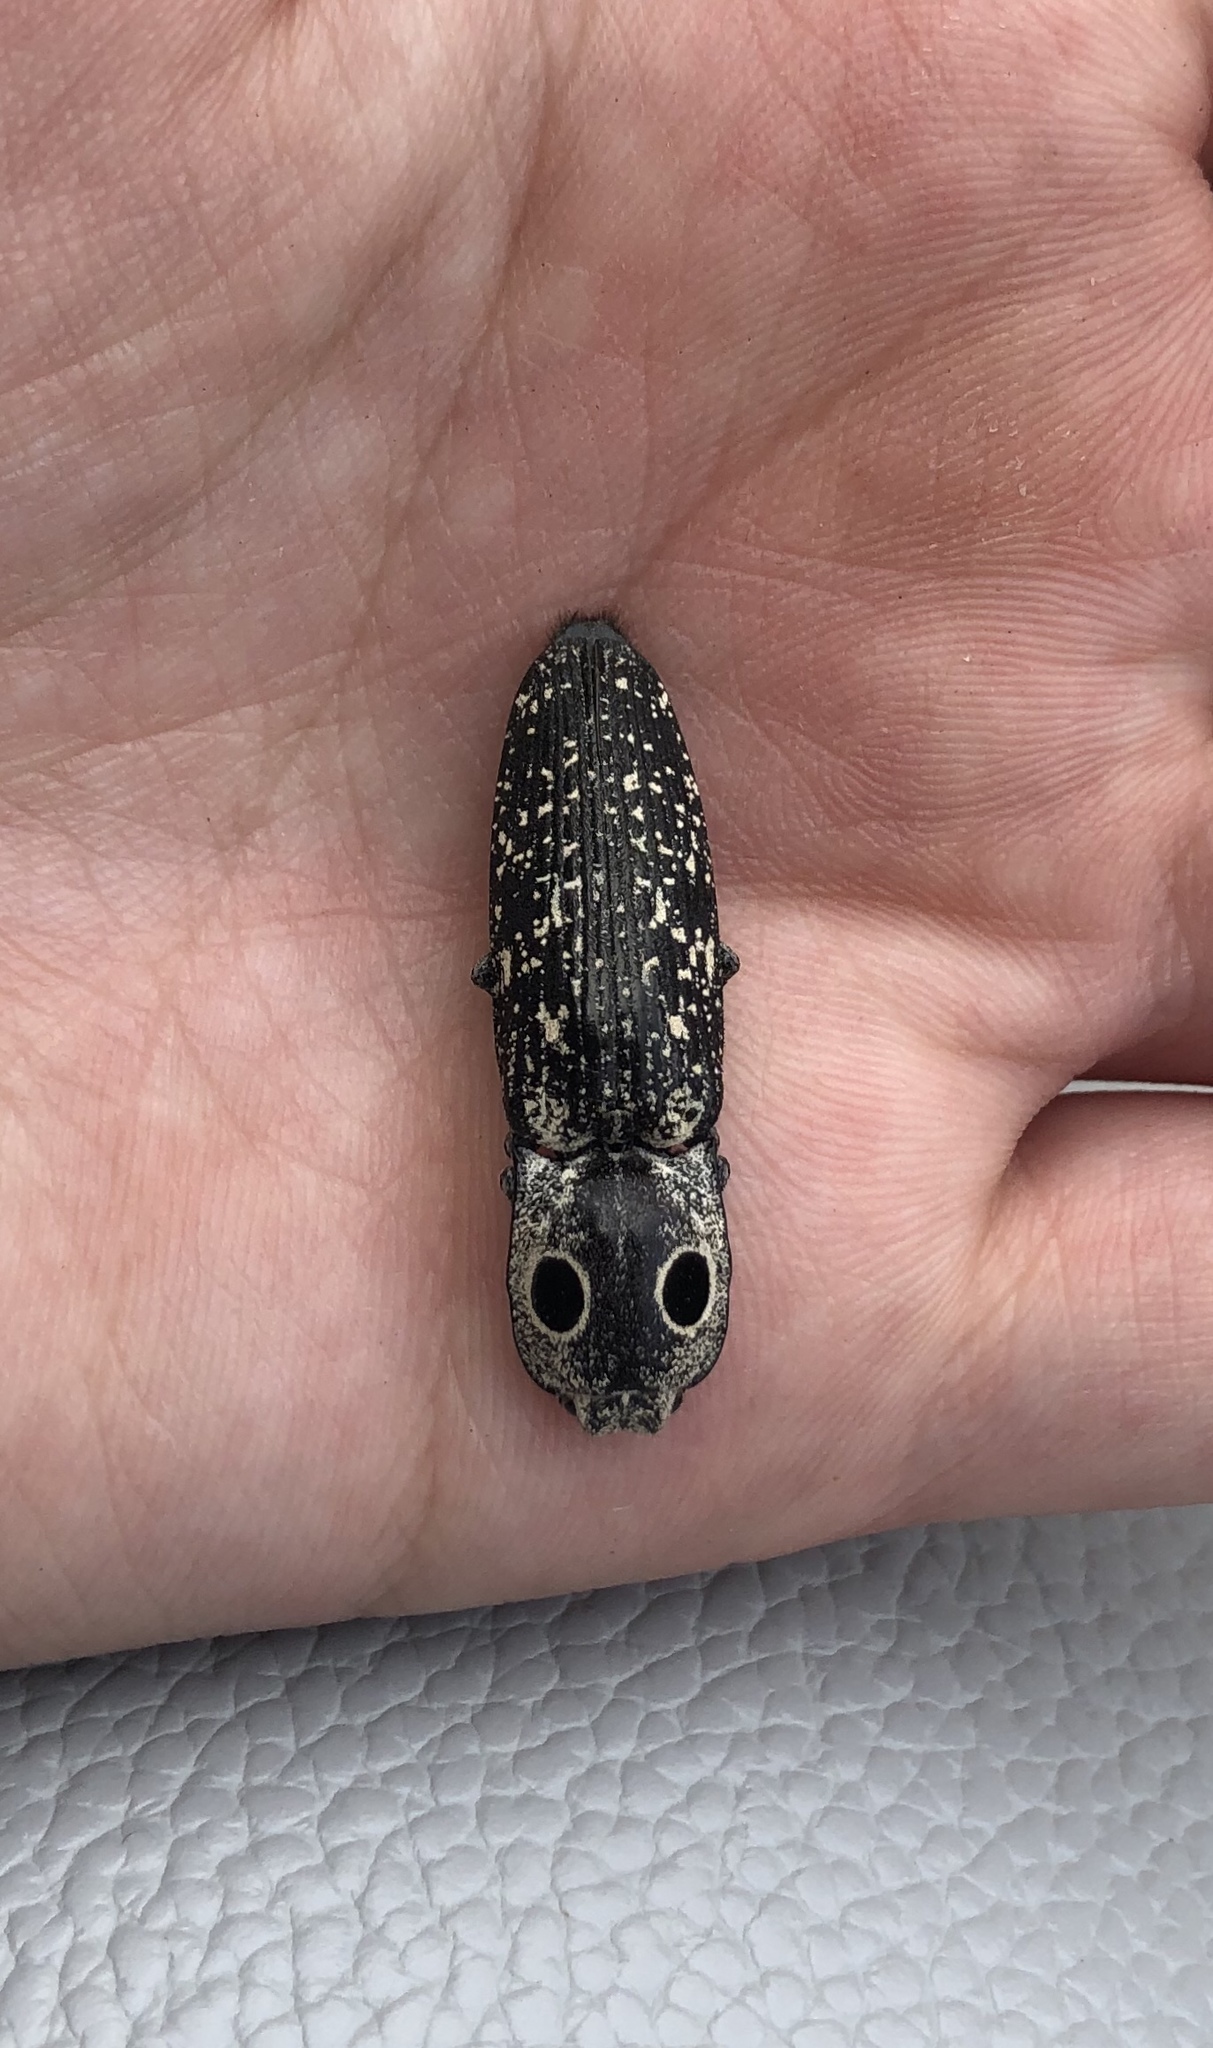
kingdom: Animalia
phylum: Arthropoda
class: Insecta
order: Coleoptera
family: Elateridae
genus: Alaus
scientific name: Alaus oculatus
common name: Eastern eyed click beetle
